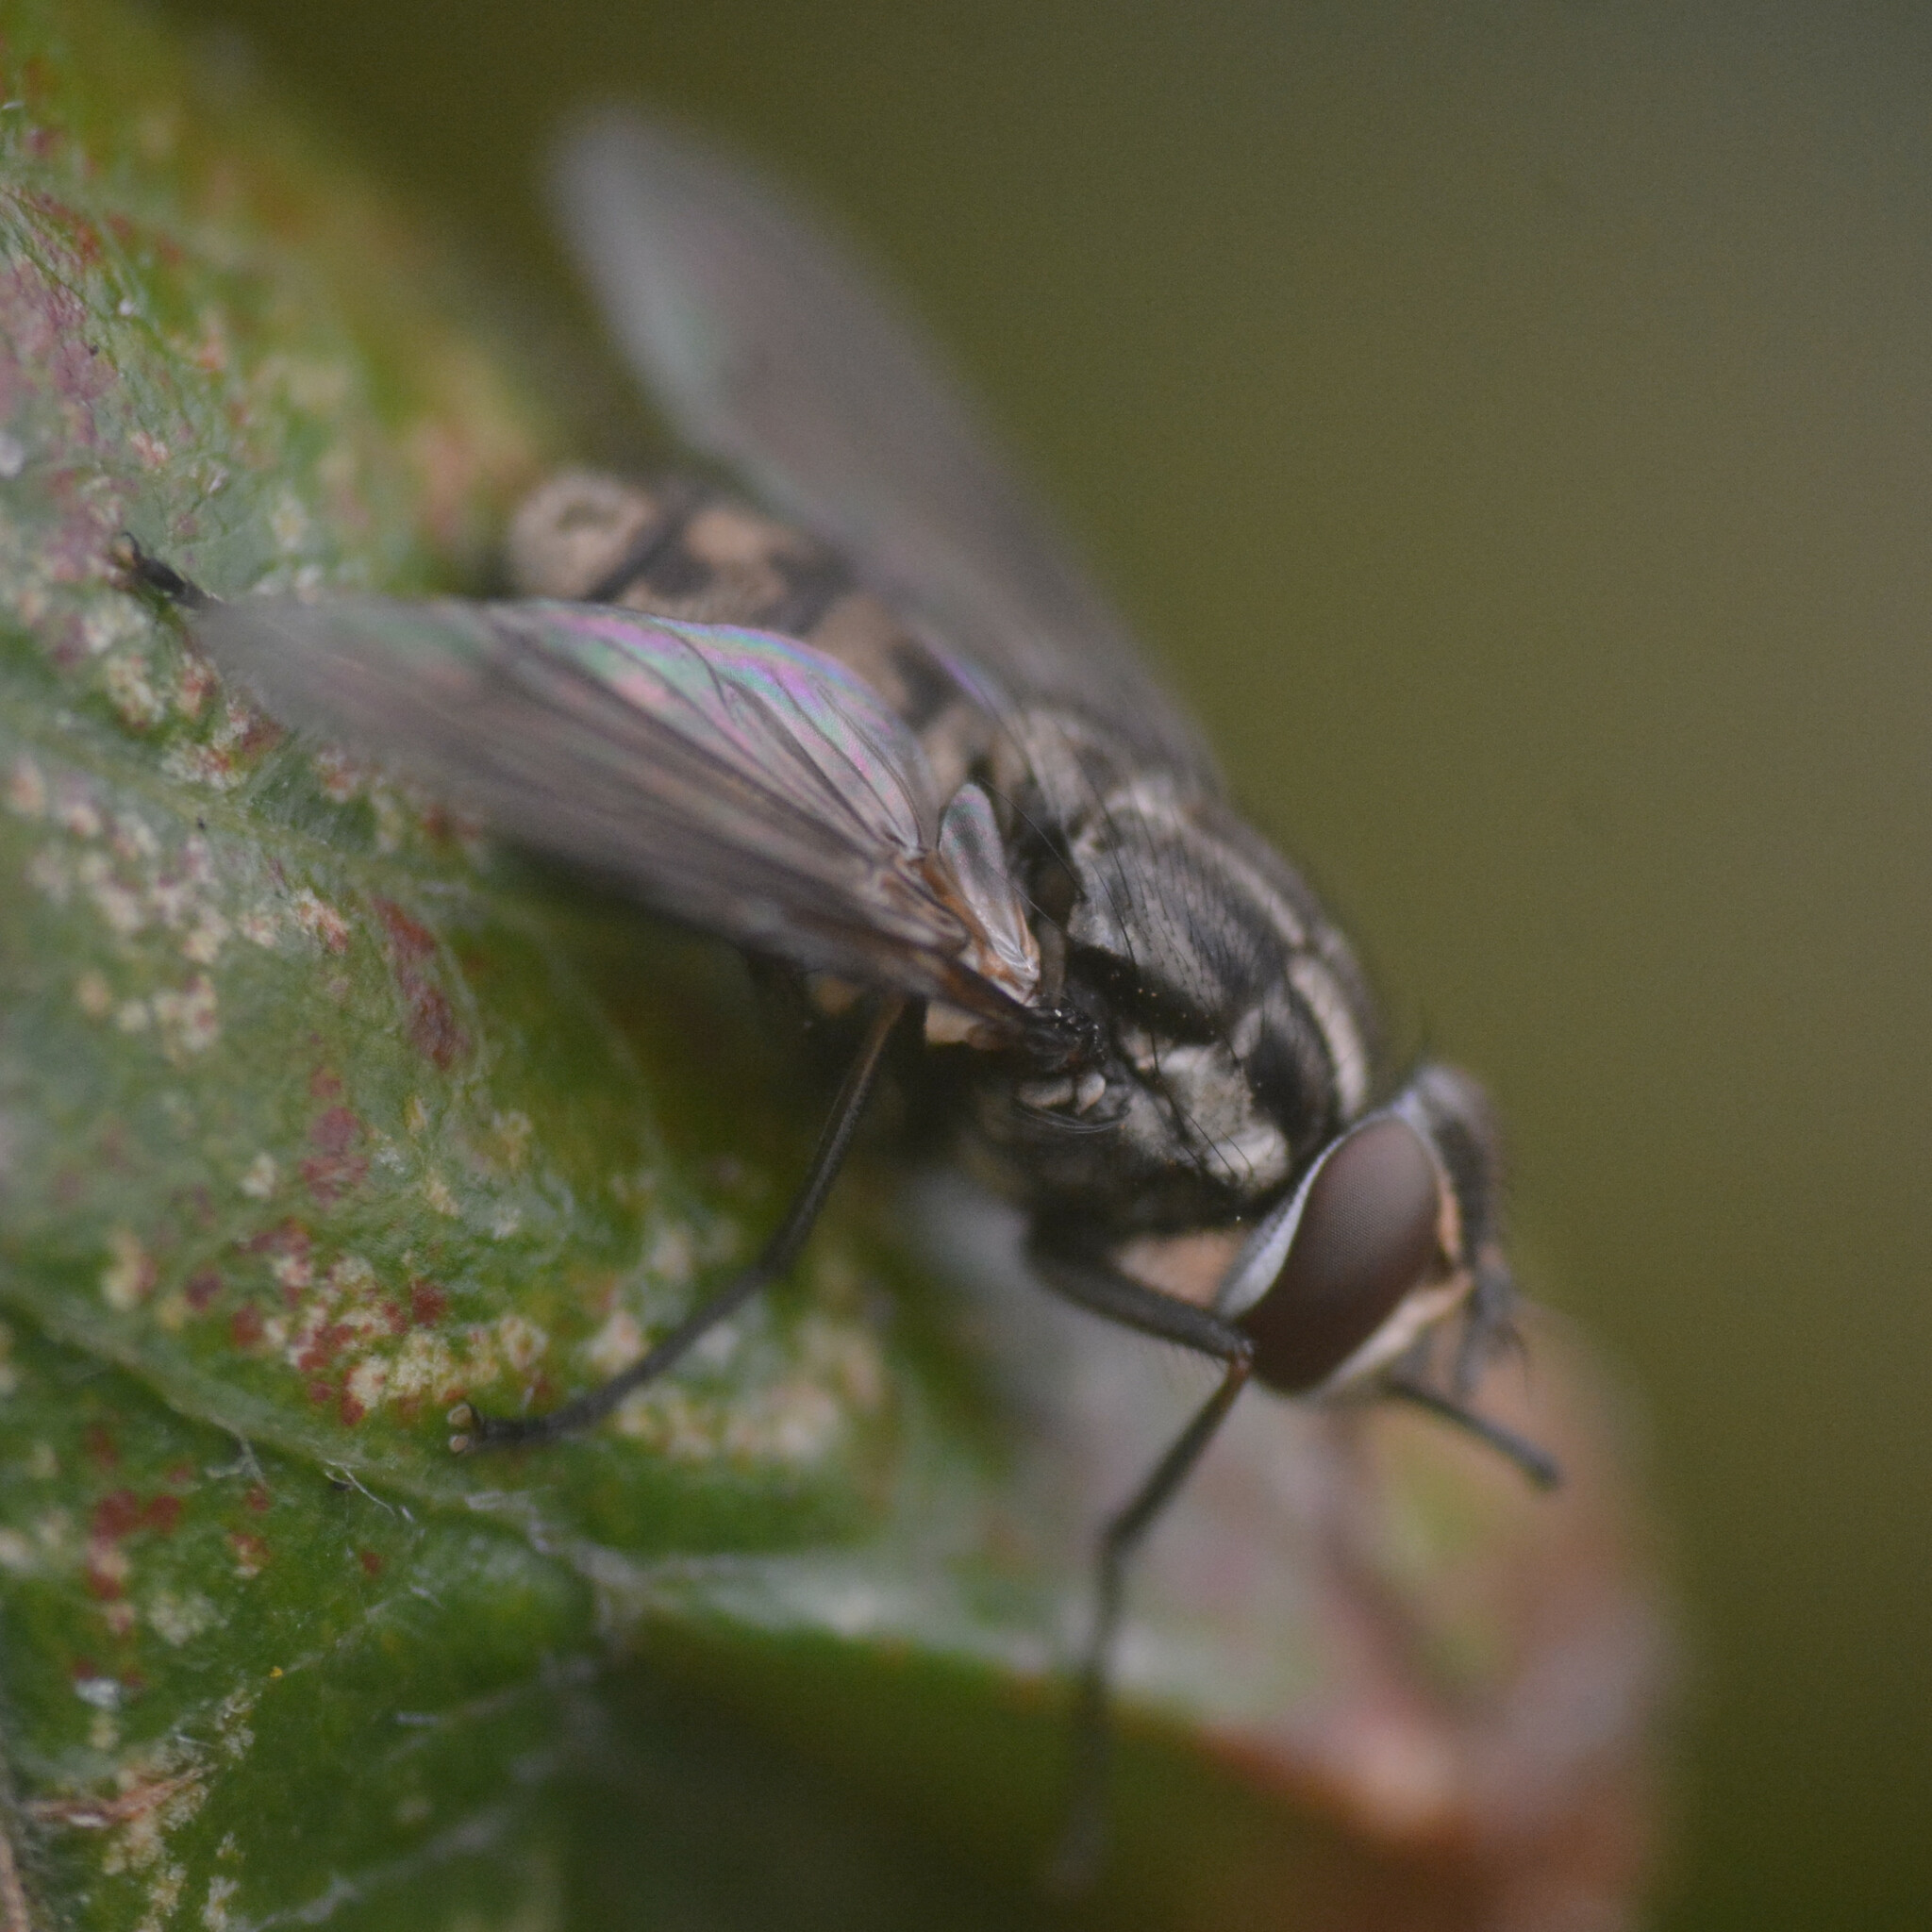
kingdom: Animalia
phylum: Arthropoda
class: Insecta
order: Diptera
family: Muscidae
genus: Stomoxys
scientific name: Stomoxys calcitrans
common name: Stable fly
